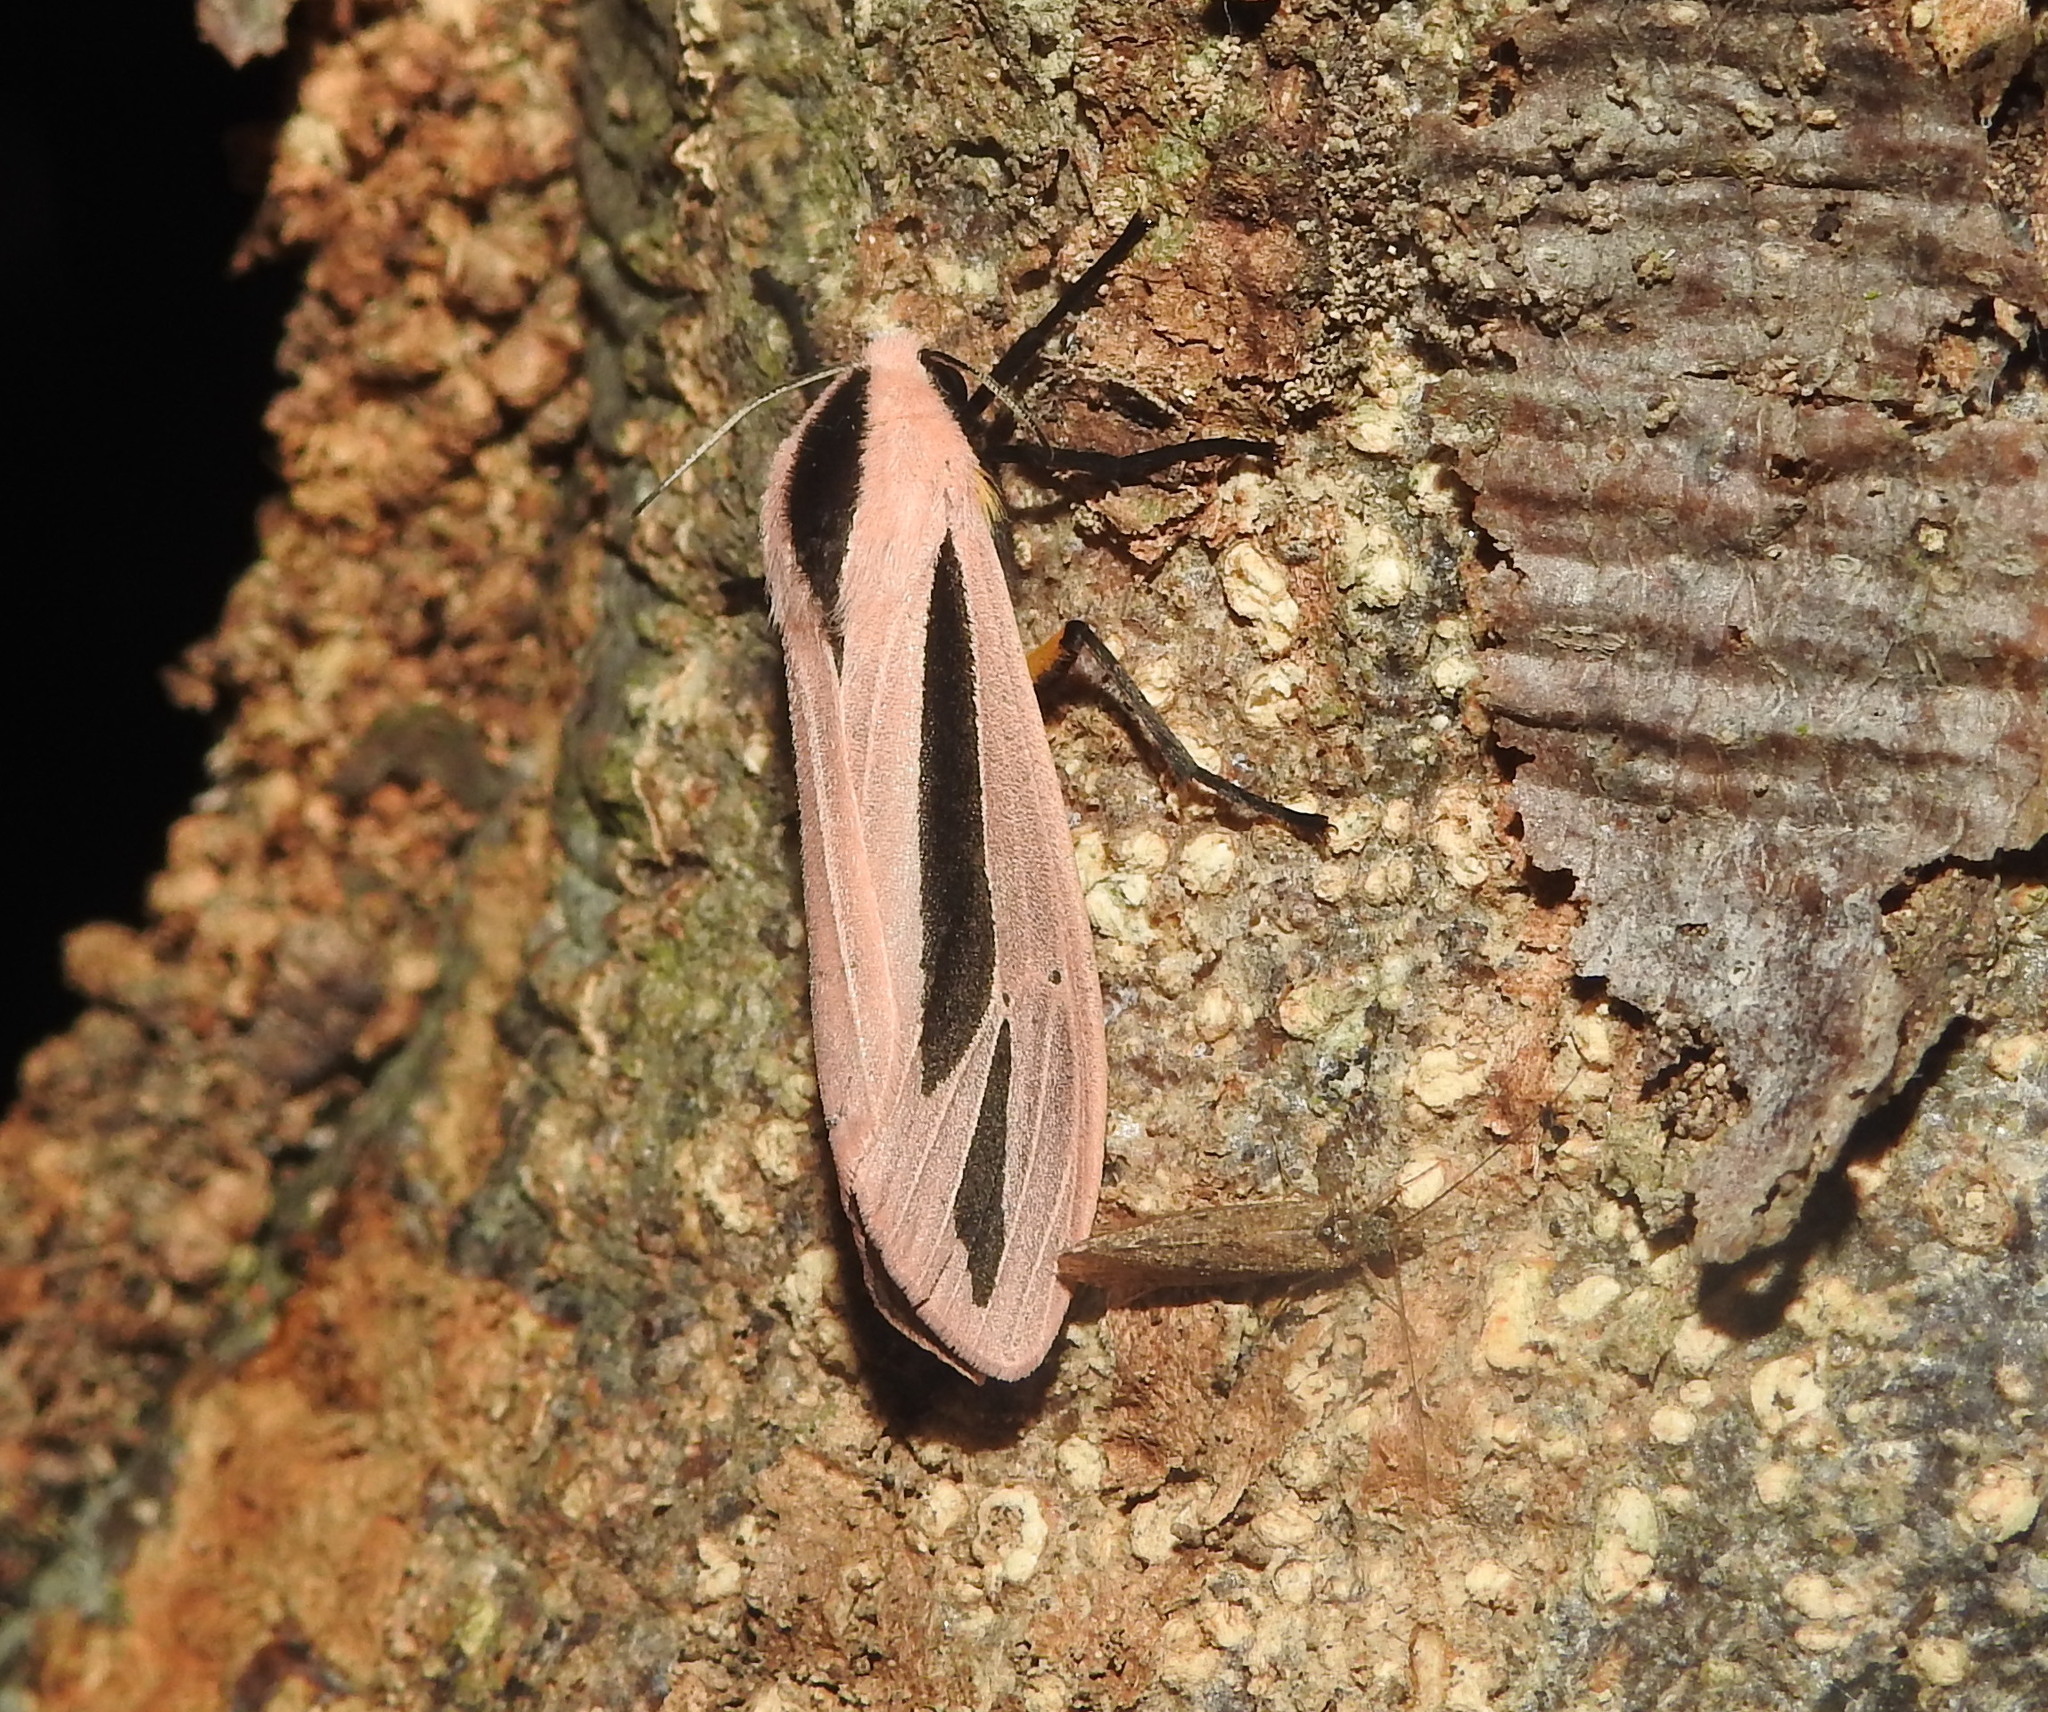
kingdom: Animalia
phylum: Arthropoda
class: Insecta
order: Lepidoptera
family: Erebidae
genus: Creatonotos
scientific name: Creatonotos
